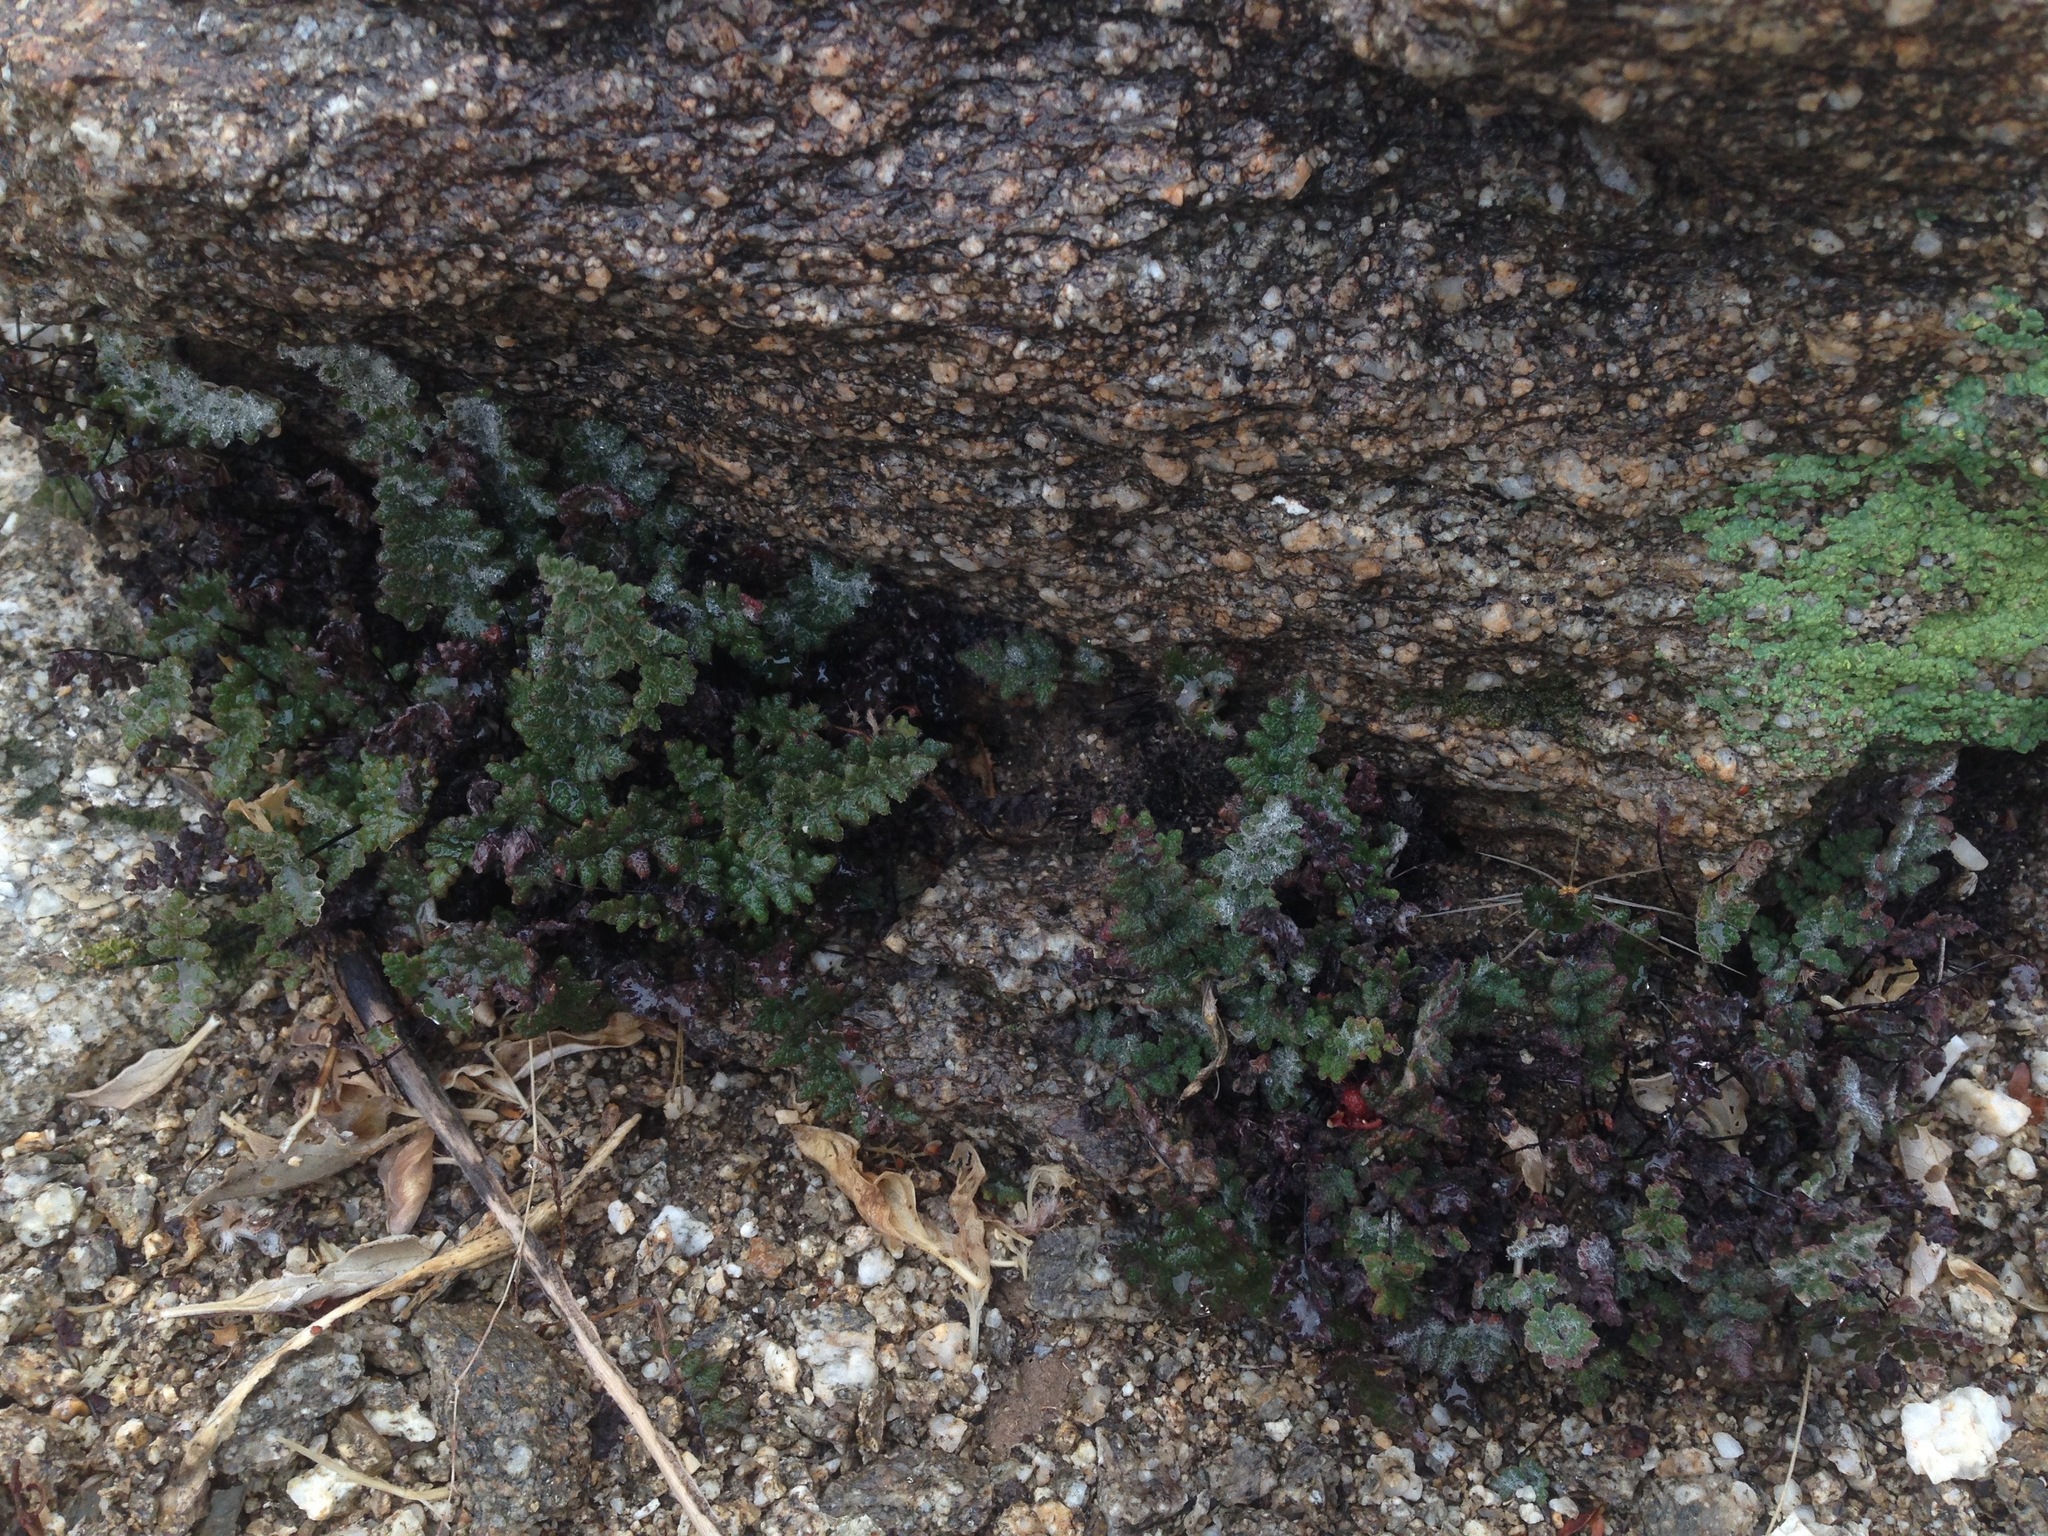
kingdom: Plantae
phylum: Tracheophyta
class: Polypodiopsida
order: Polypodiales
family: Pteridaceae
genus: Myriopteris
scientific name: Myriopteris parryi
